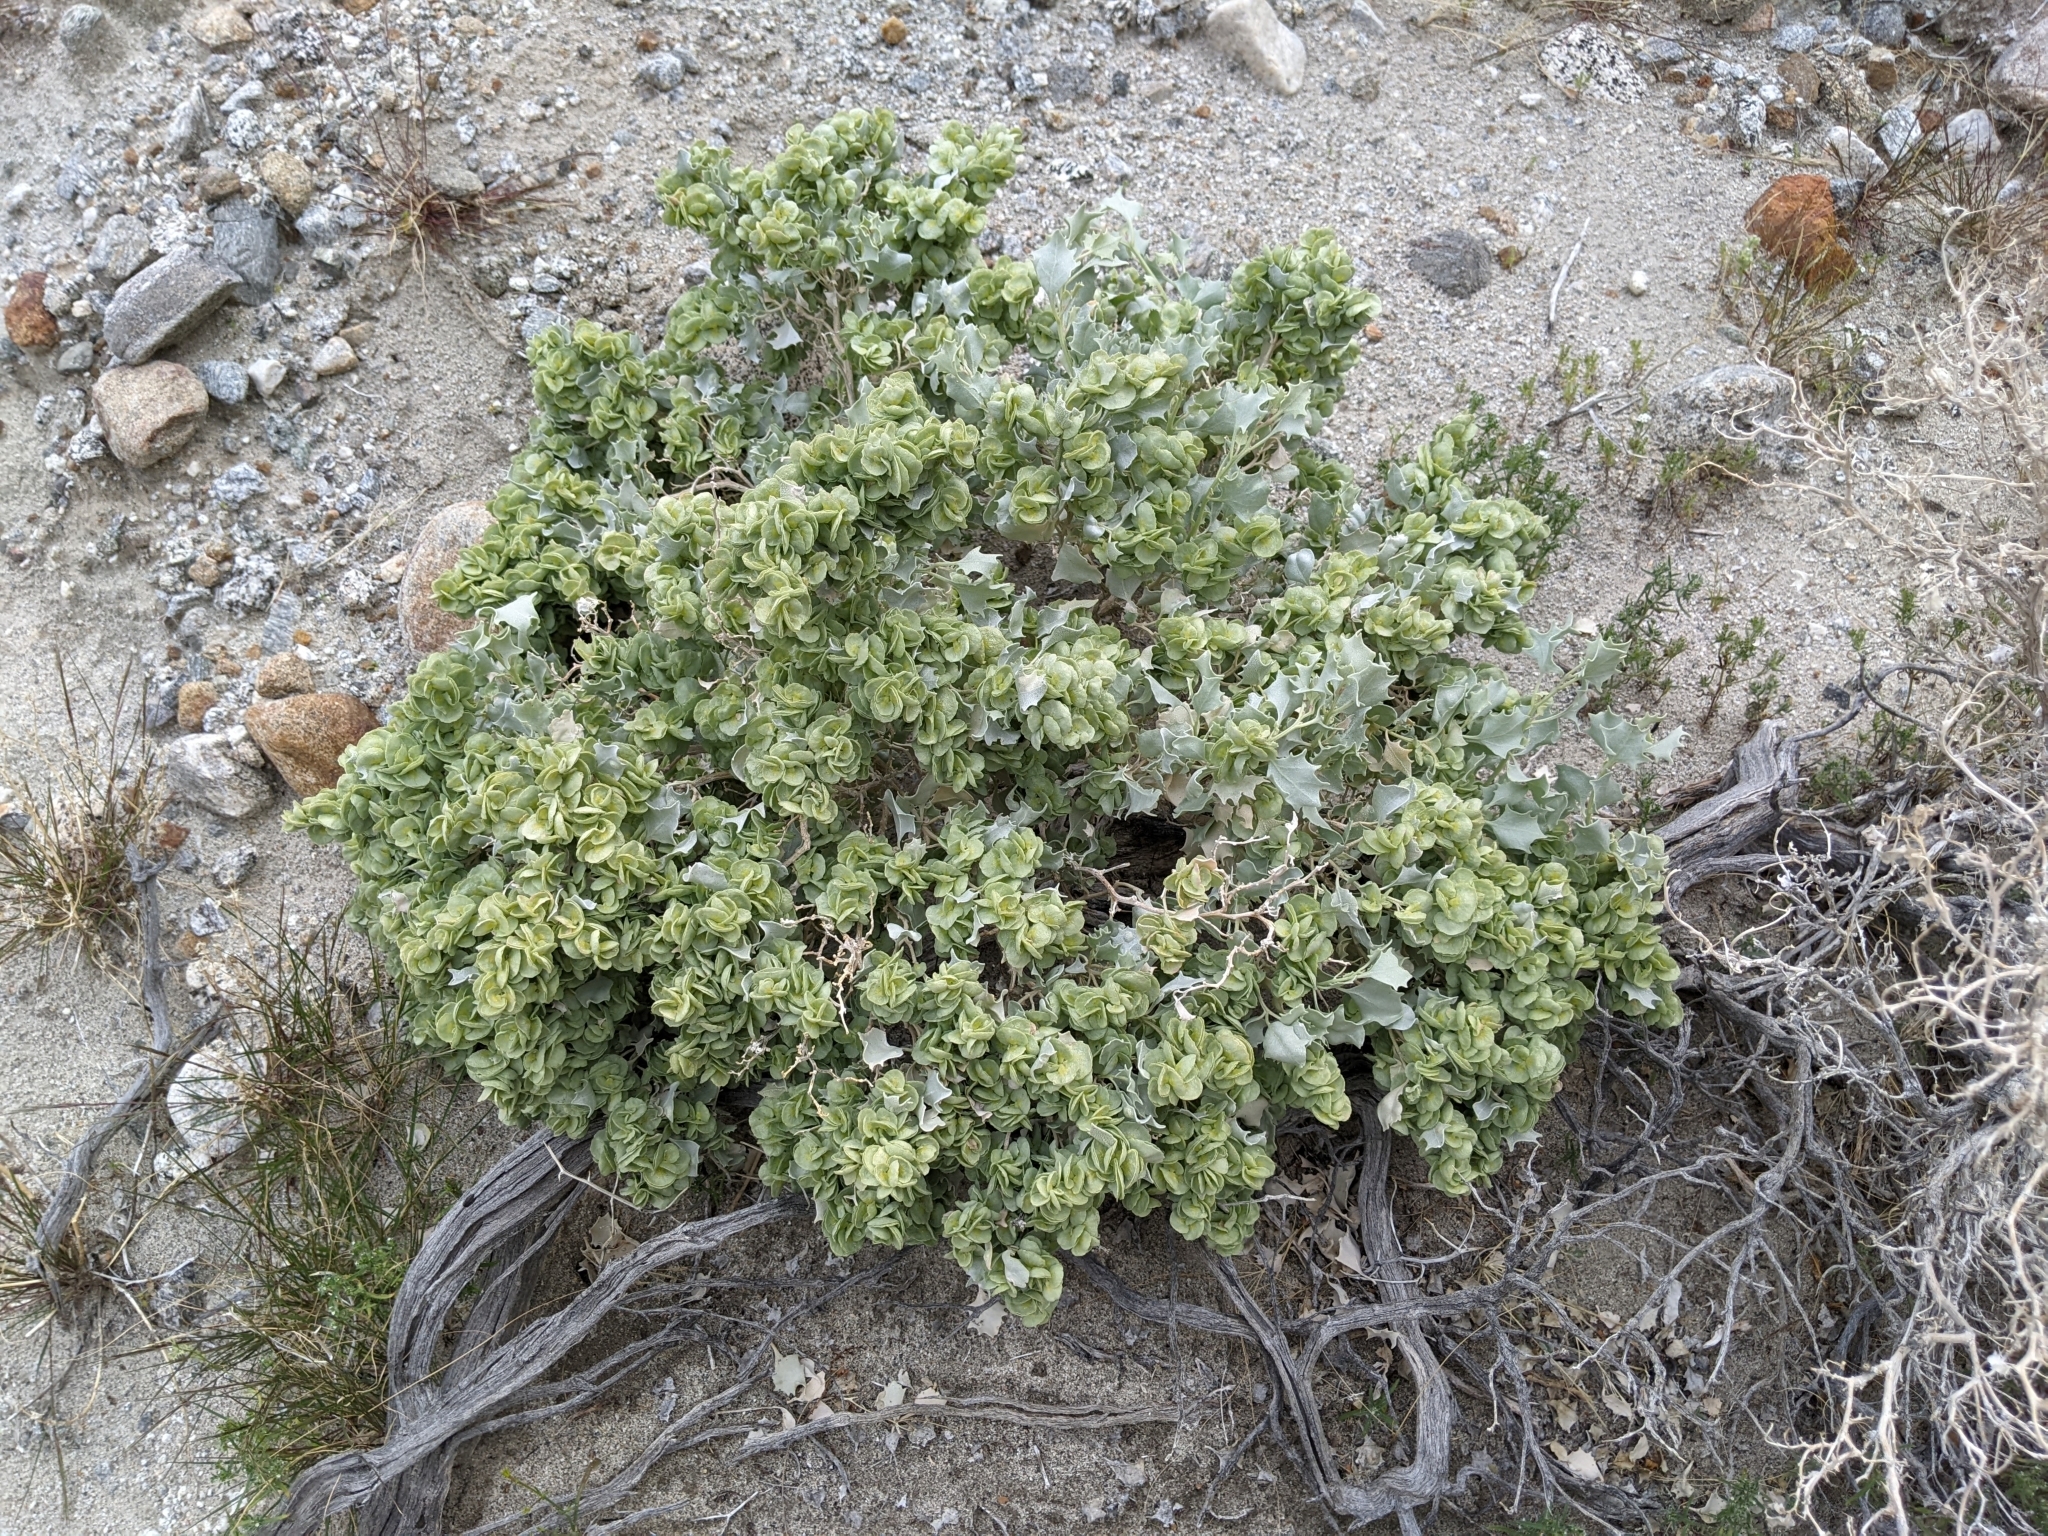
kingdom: Plantae
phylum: Tracheophyta
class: Magnoliopsida
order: Caryophyllales
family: Amaranthaceae
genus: Atriplex
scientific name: Atriplex hymenelytra
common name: Desert-holly
